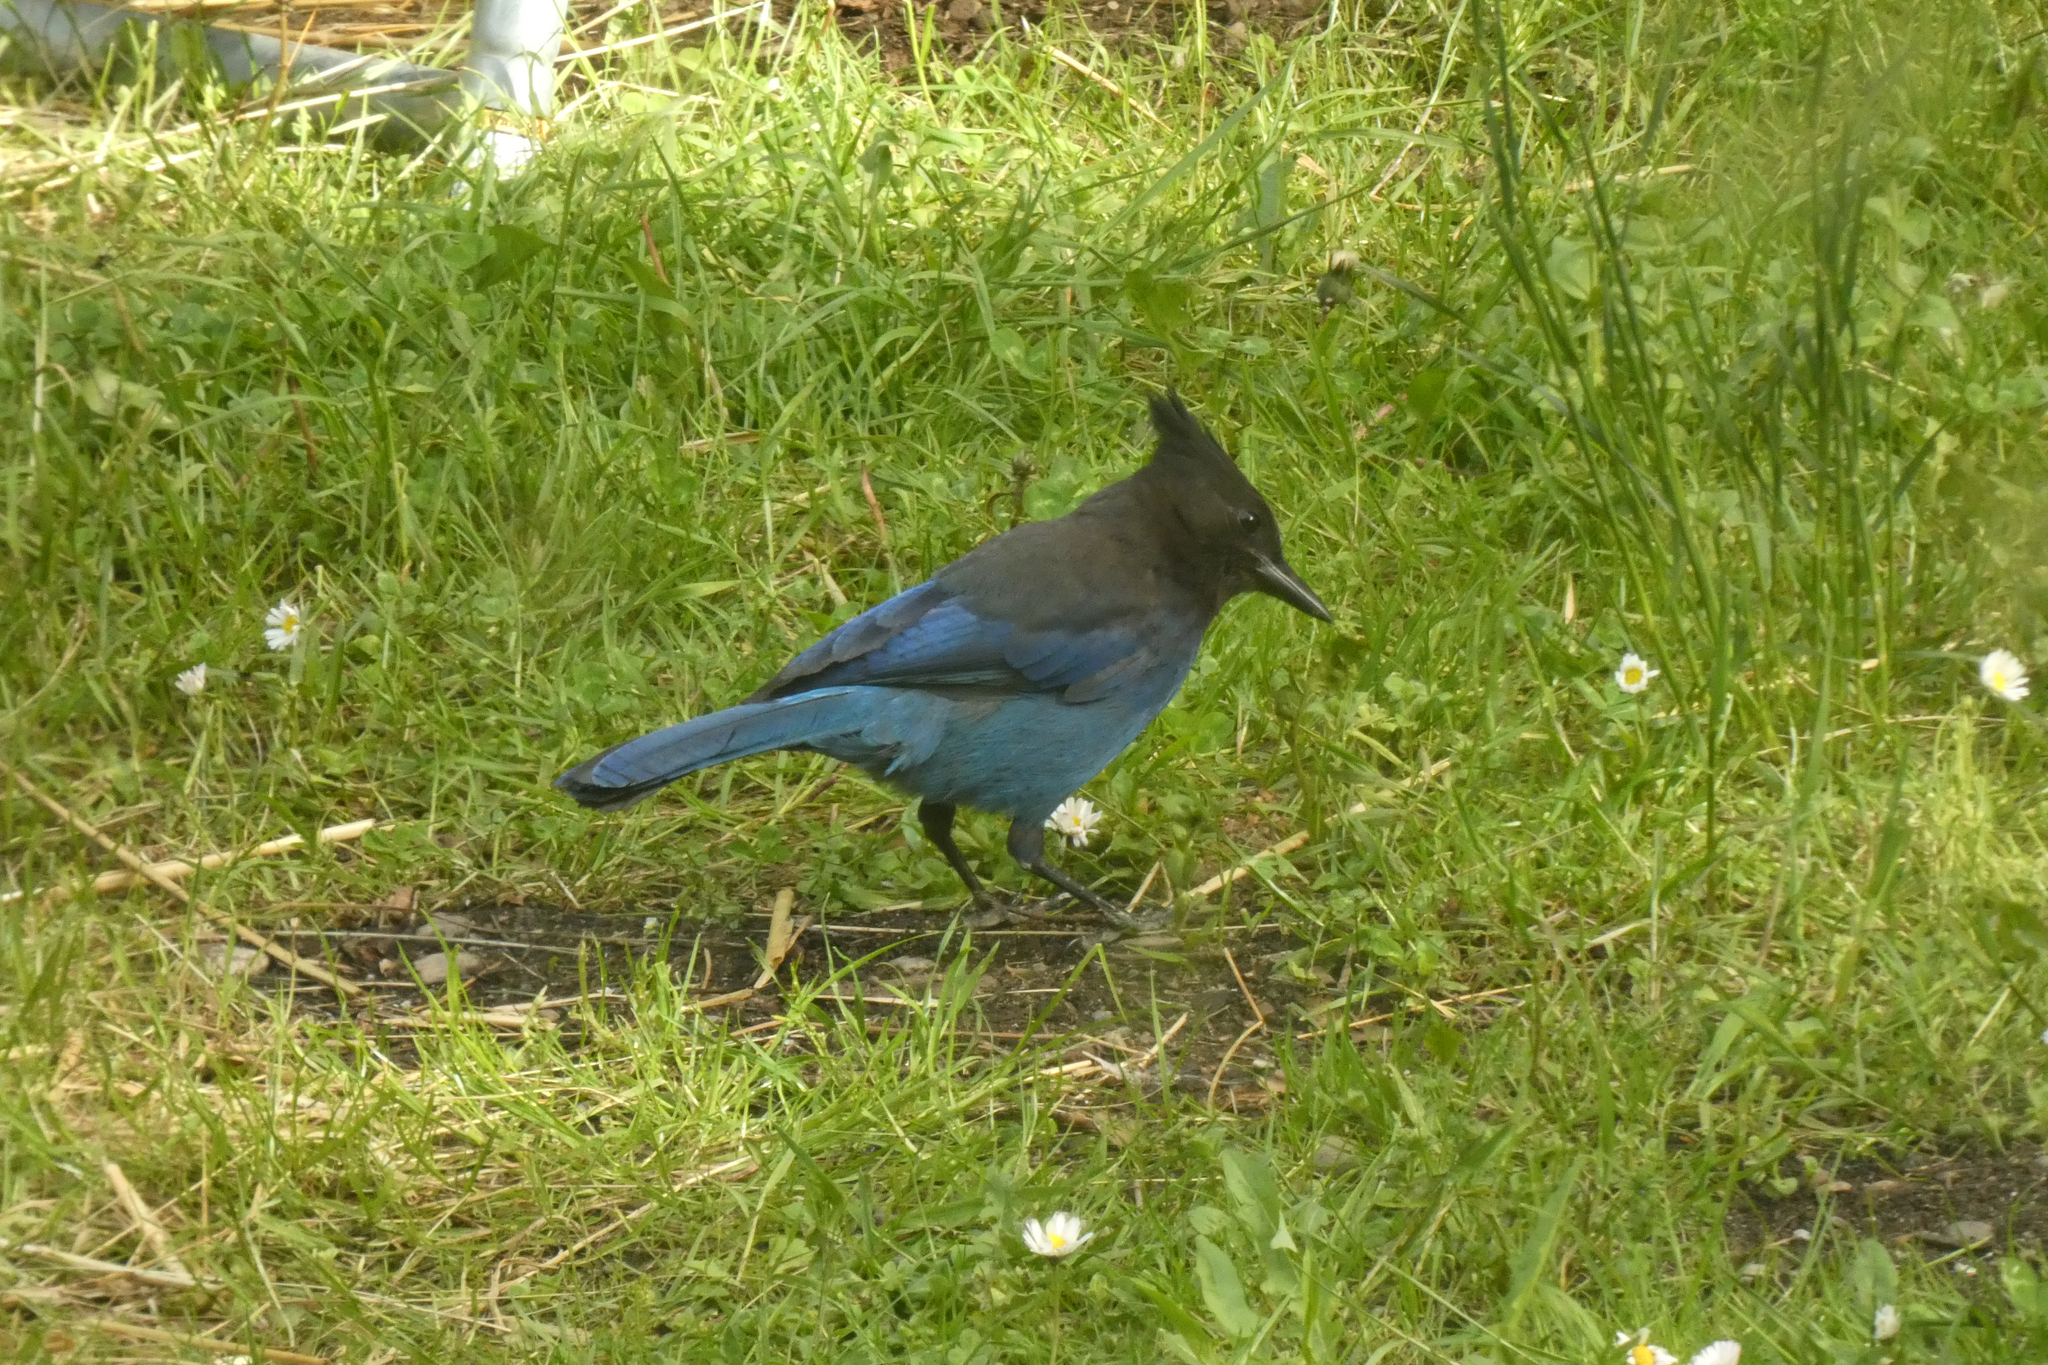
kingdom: Animalia
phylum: Chordata
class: Aves
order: Passeriformes
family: Corvidae
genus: Cyanocitta
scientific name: Cyanocitta stelleri
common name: Steller's jay
